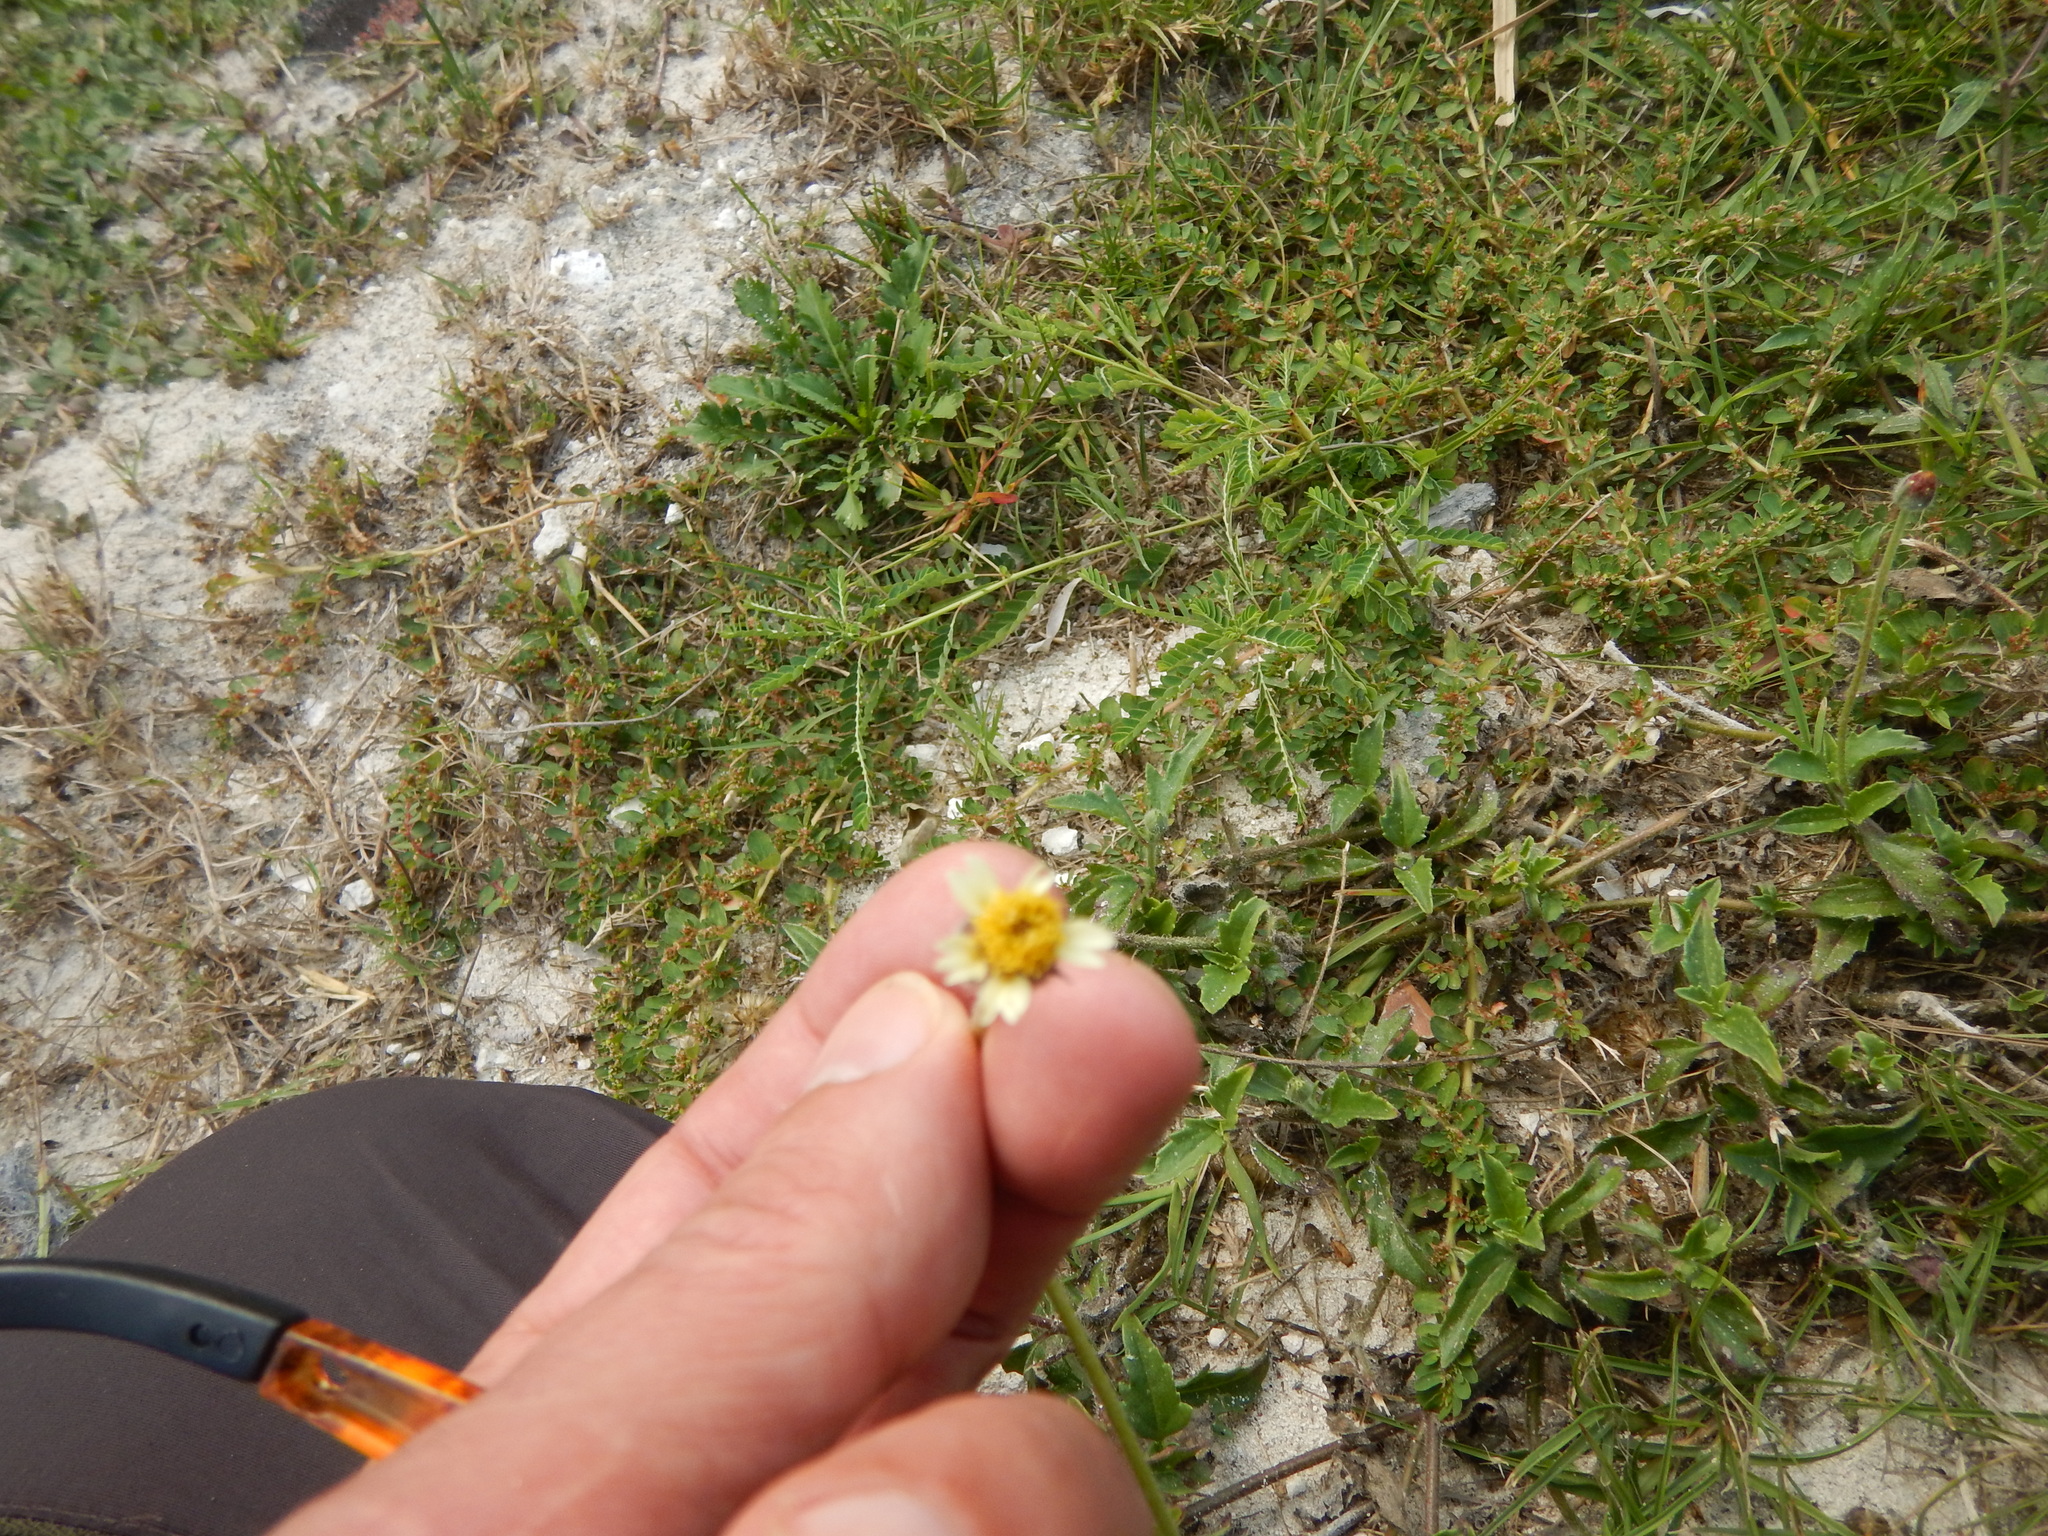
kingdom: Plantae
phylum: Tracheophyta
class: Magnoliopsida
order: Asterales
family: Asteraceae
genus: Tridax
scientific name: Tridax procumbens
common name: Coatbuttons
